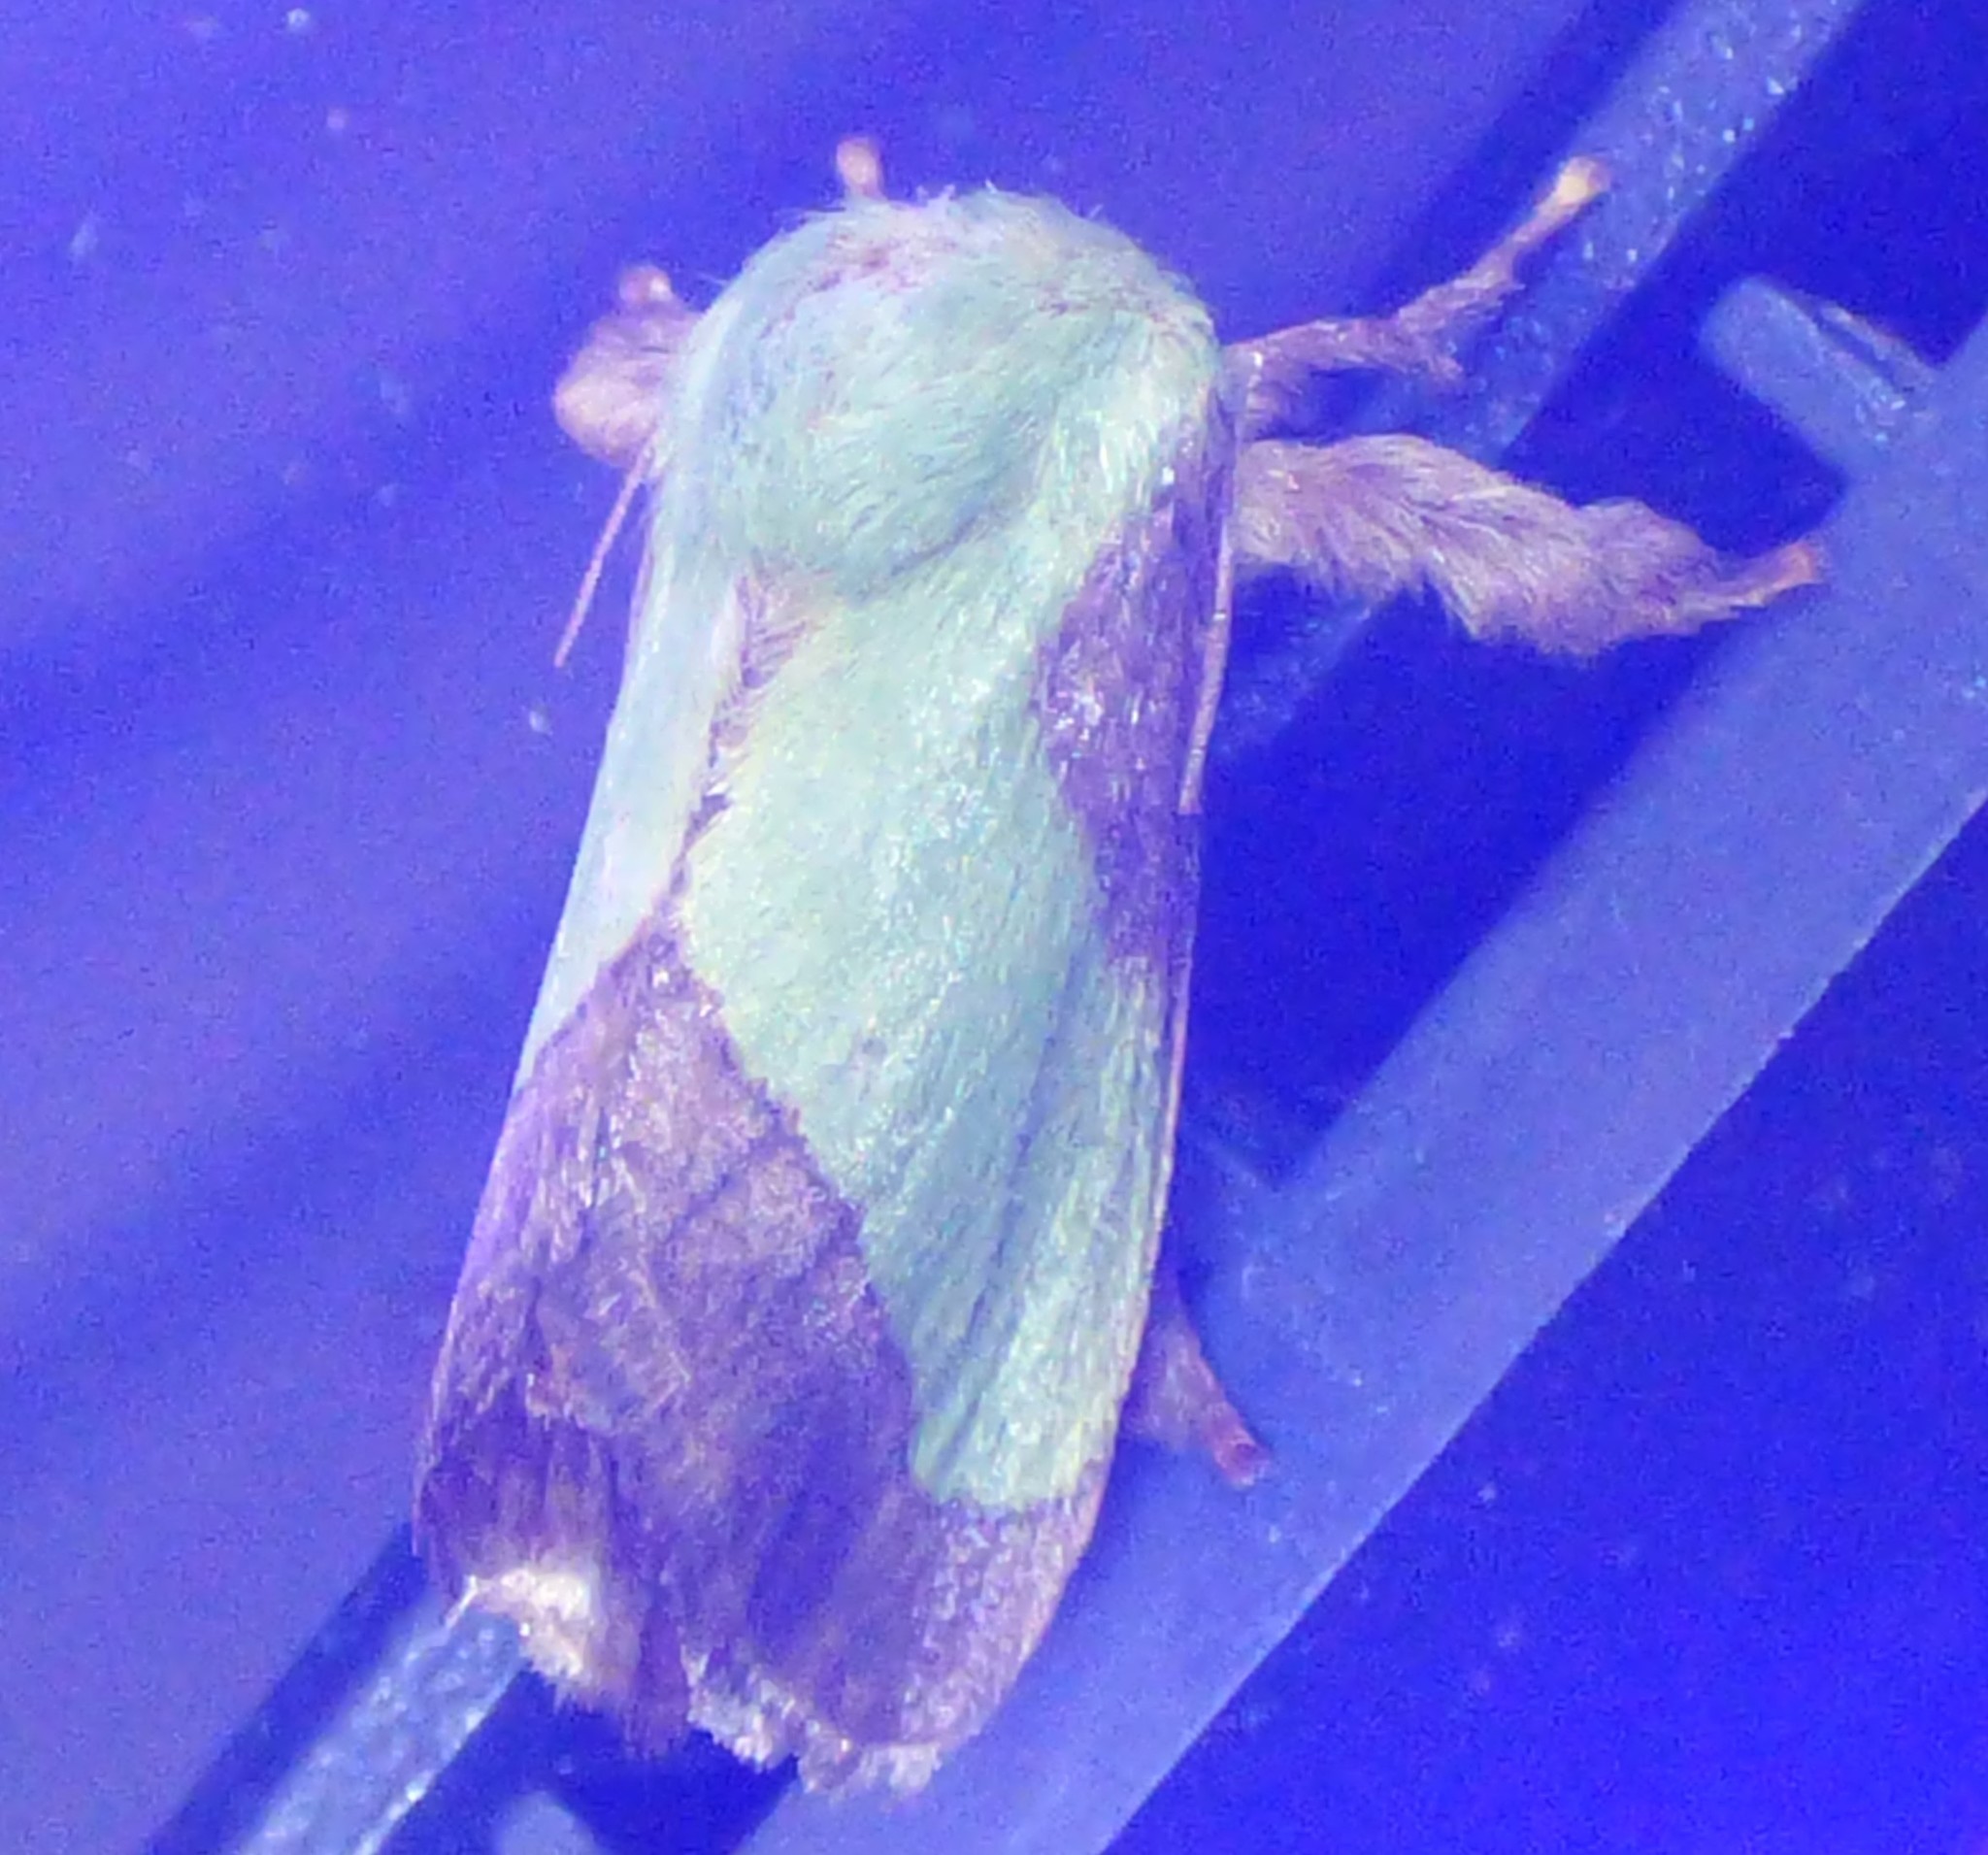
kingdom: Animalia
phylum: Arthropoda
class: Insecta
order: Lepidoptera
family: Limacodidae
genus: Parasa
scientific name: Parasa chloris
